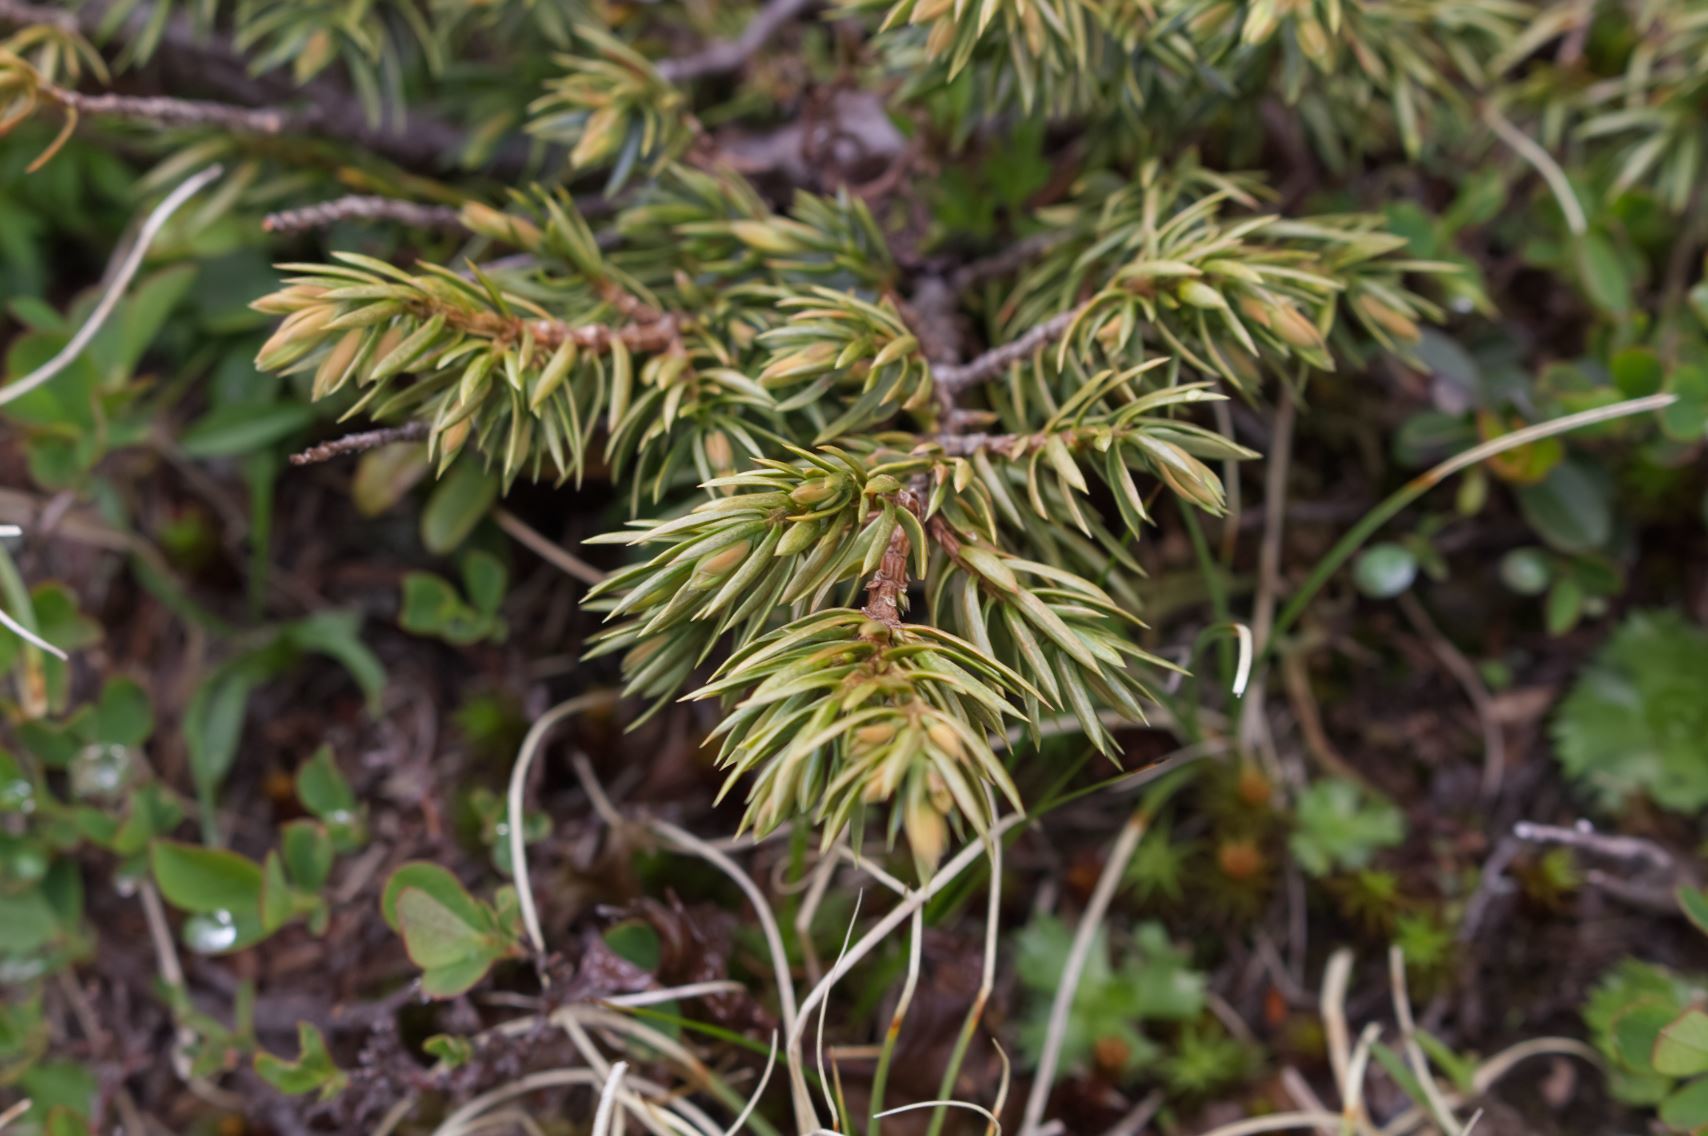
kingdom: Plantae
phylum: Tracheophyta
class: Pinopsida
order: Pinales
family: Cupressaceae
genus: Juniperus
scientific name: Juniperus communis
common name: Common juniper
